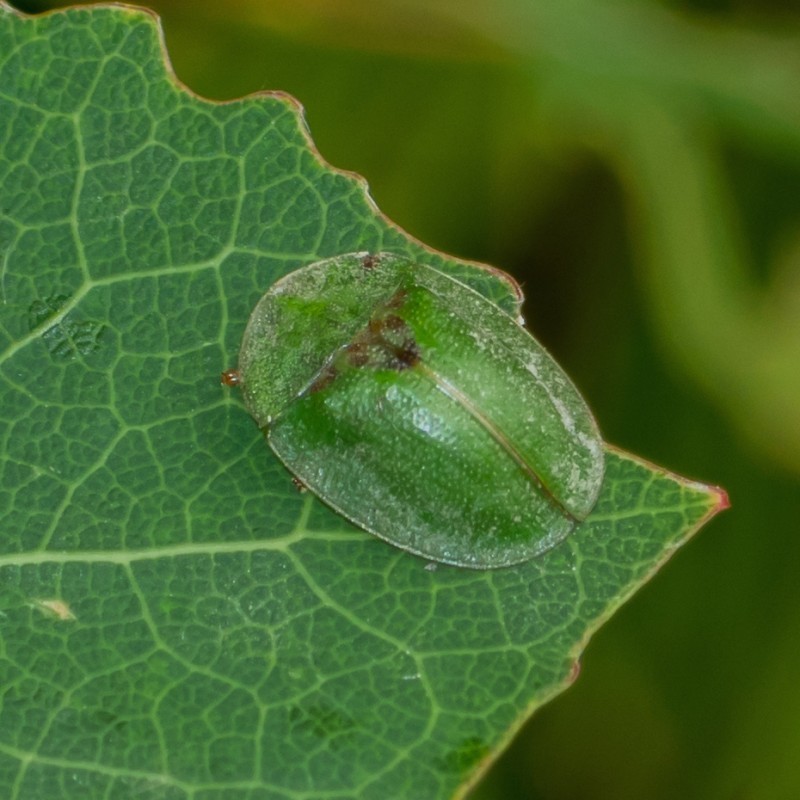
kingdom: Animalia
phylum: Arthropoda
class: Insecta
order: Coleoptera
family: Chrysomelidae
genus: Cassida
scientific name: Cassida rubiginosa
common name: Thistle tortoise beetle
